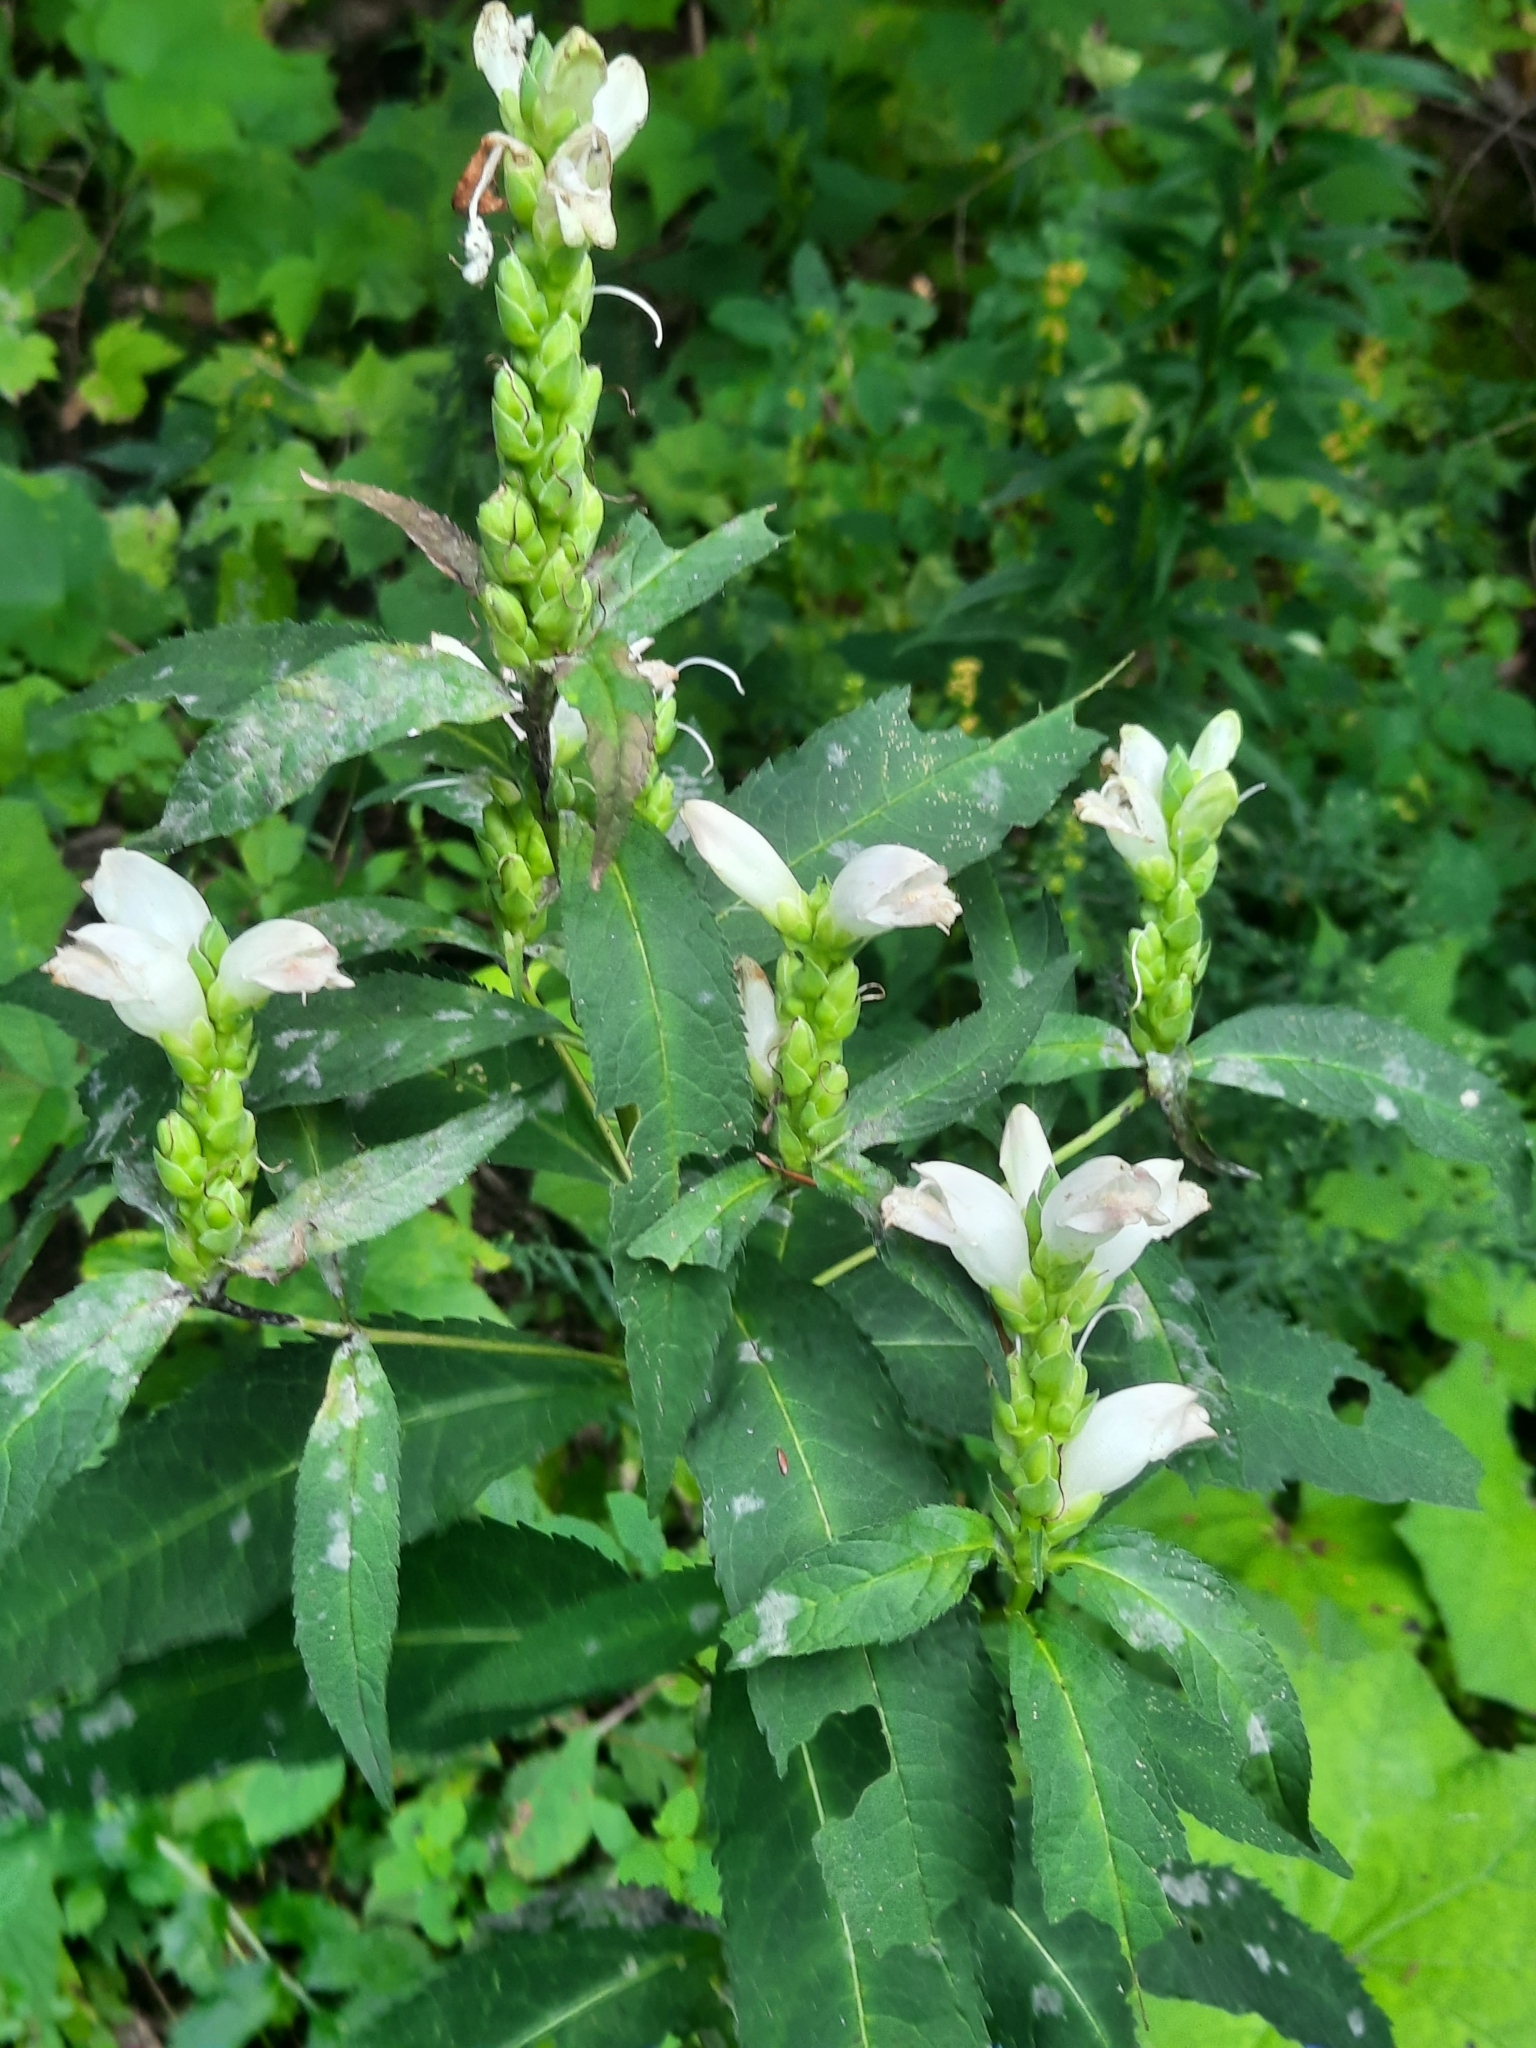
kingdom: Plantae
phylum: Tracheophyta
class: Magnoliopsida
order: Lamiales
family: Plantaginaceae
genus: Chelone
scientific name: Chelone glabra
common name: Snakehead
